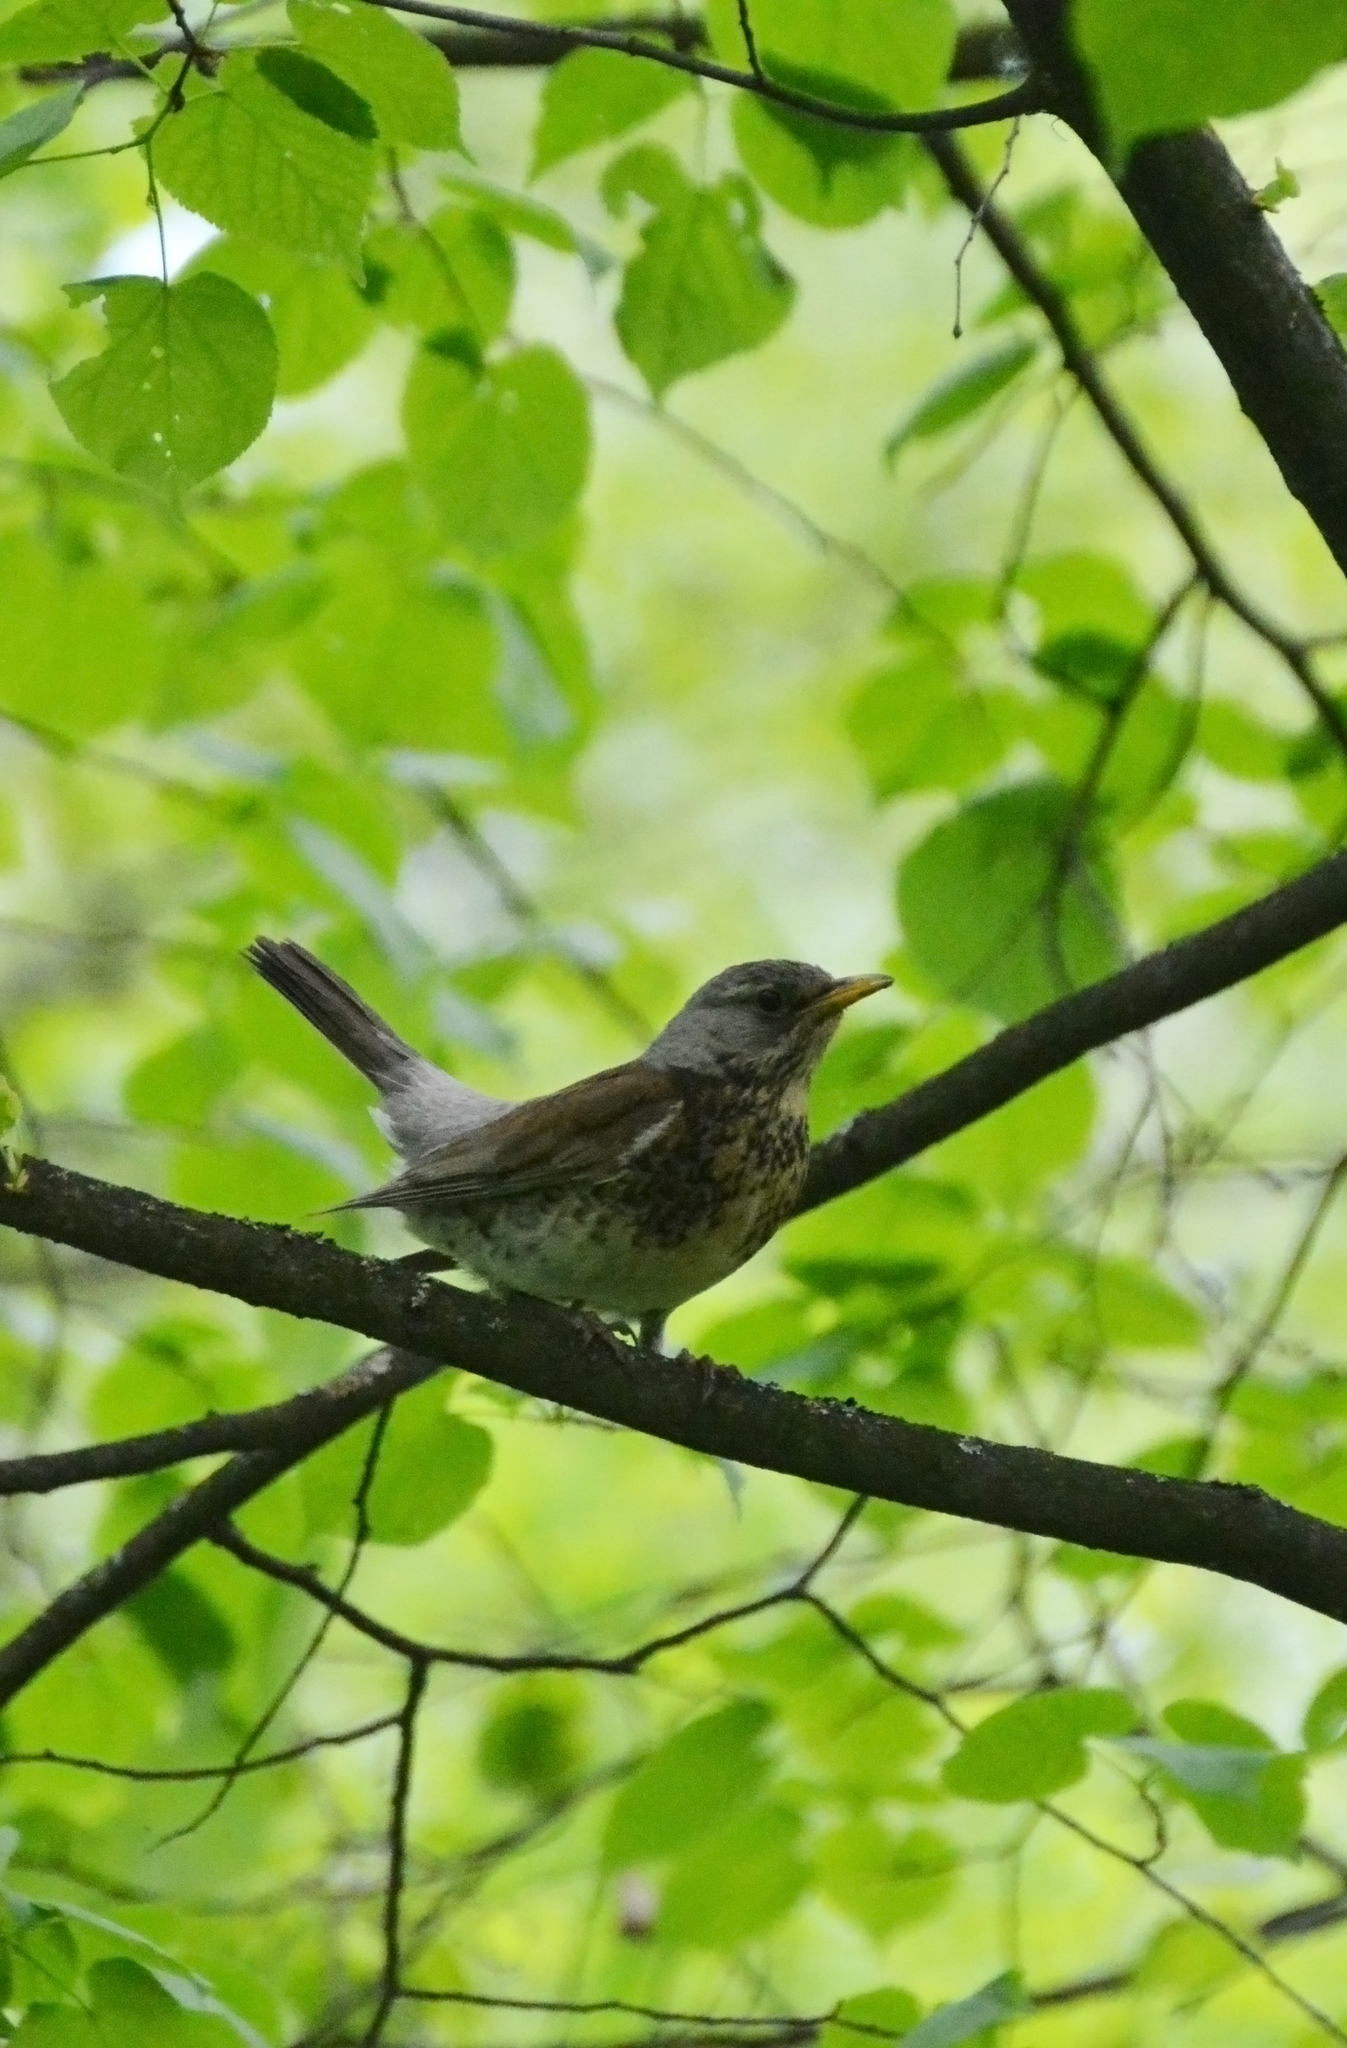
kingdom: Animalia
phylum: Chordata
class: Aves
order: Passeriformes
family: Turdidae
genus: Turdus
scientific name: Turdus pilaris
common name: Fieldfare
